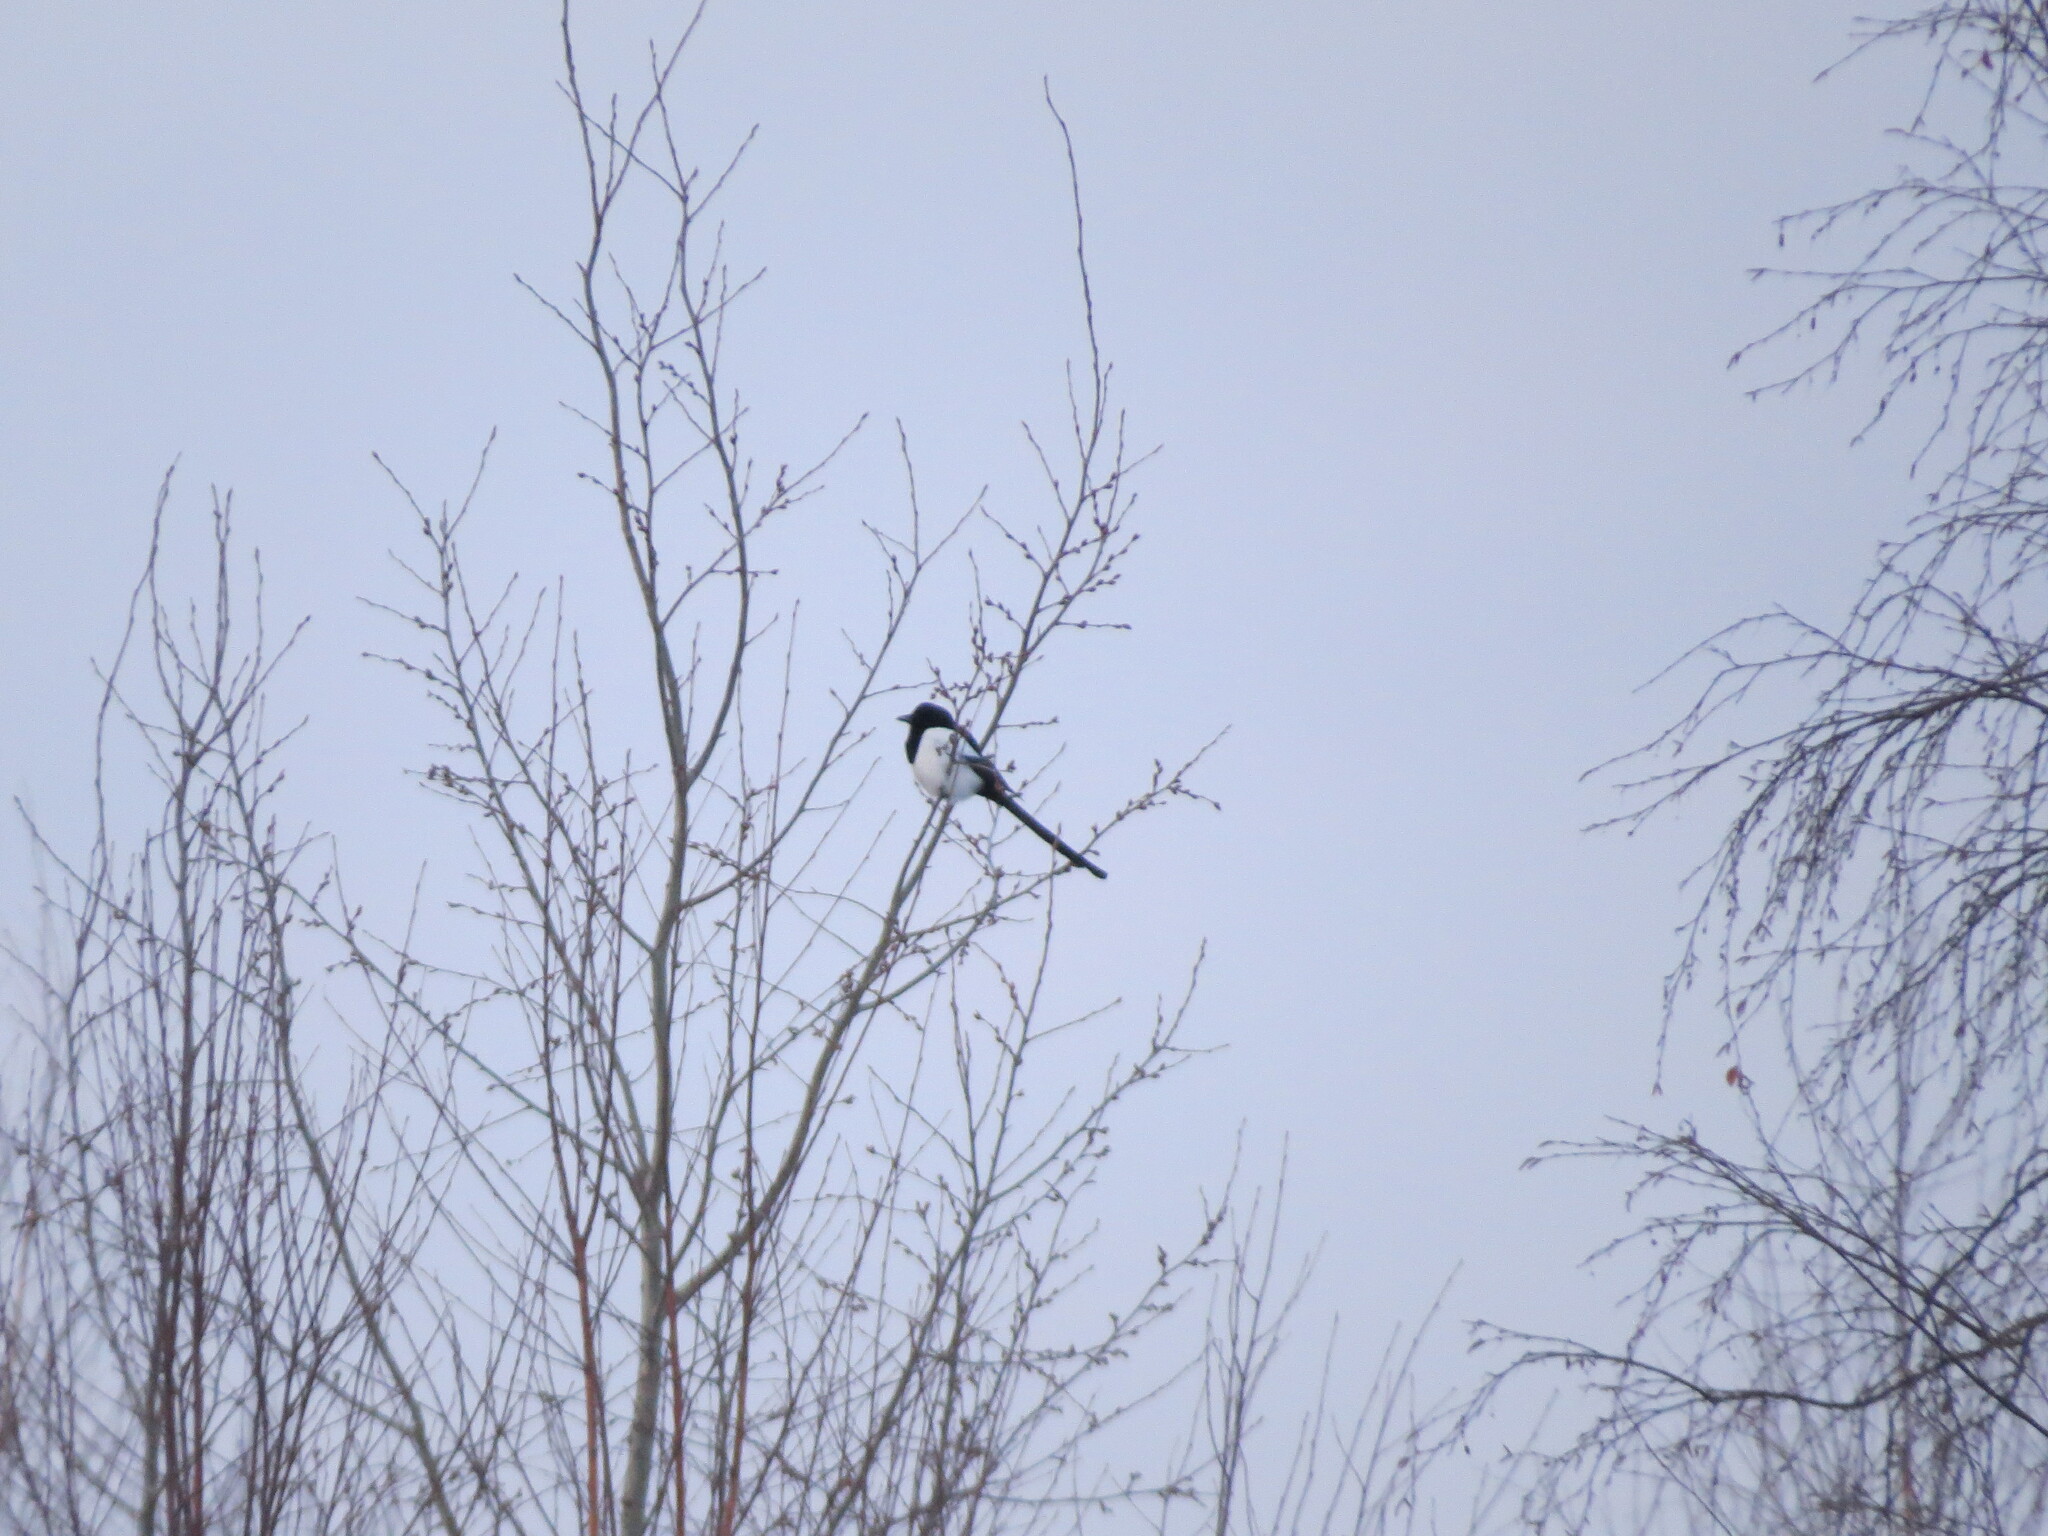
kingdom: Animalia
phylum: Chordata
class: Aves
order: Passeriformes
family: Corvidae
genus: Pica
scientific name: Pica pica
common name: Eurasian magpie
